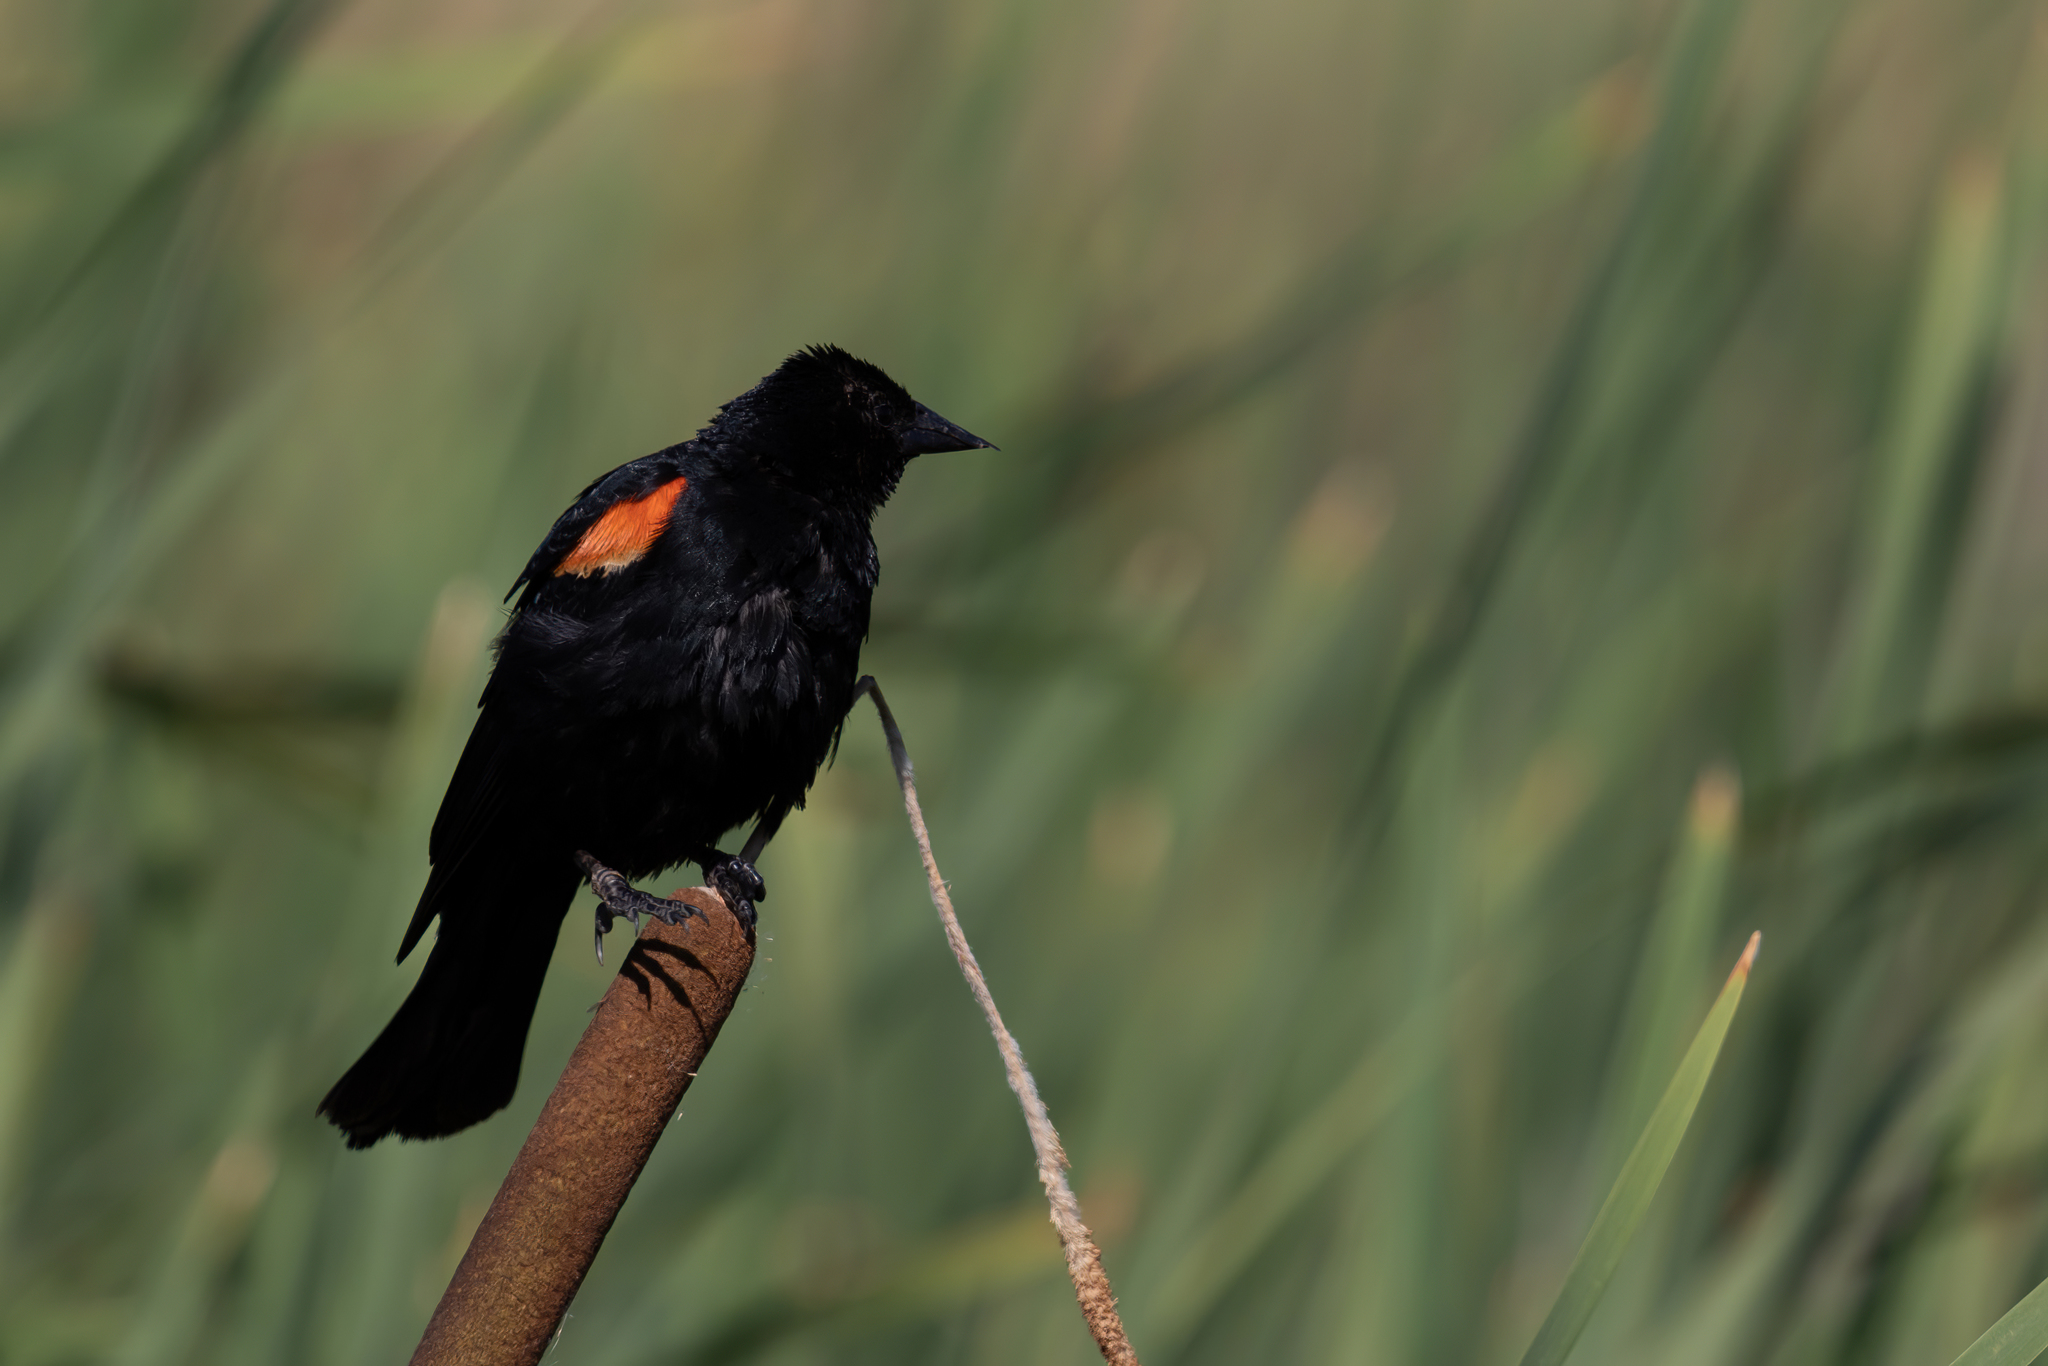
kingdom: Animalia
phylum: Chordata
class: Aves
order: Passeriformes
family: Icteridae
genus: Agelaius
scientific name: Agelaius phoeniceus
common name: Red-winged blackbird
